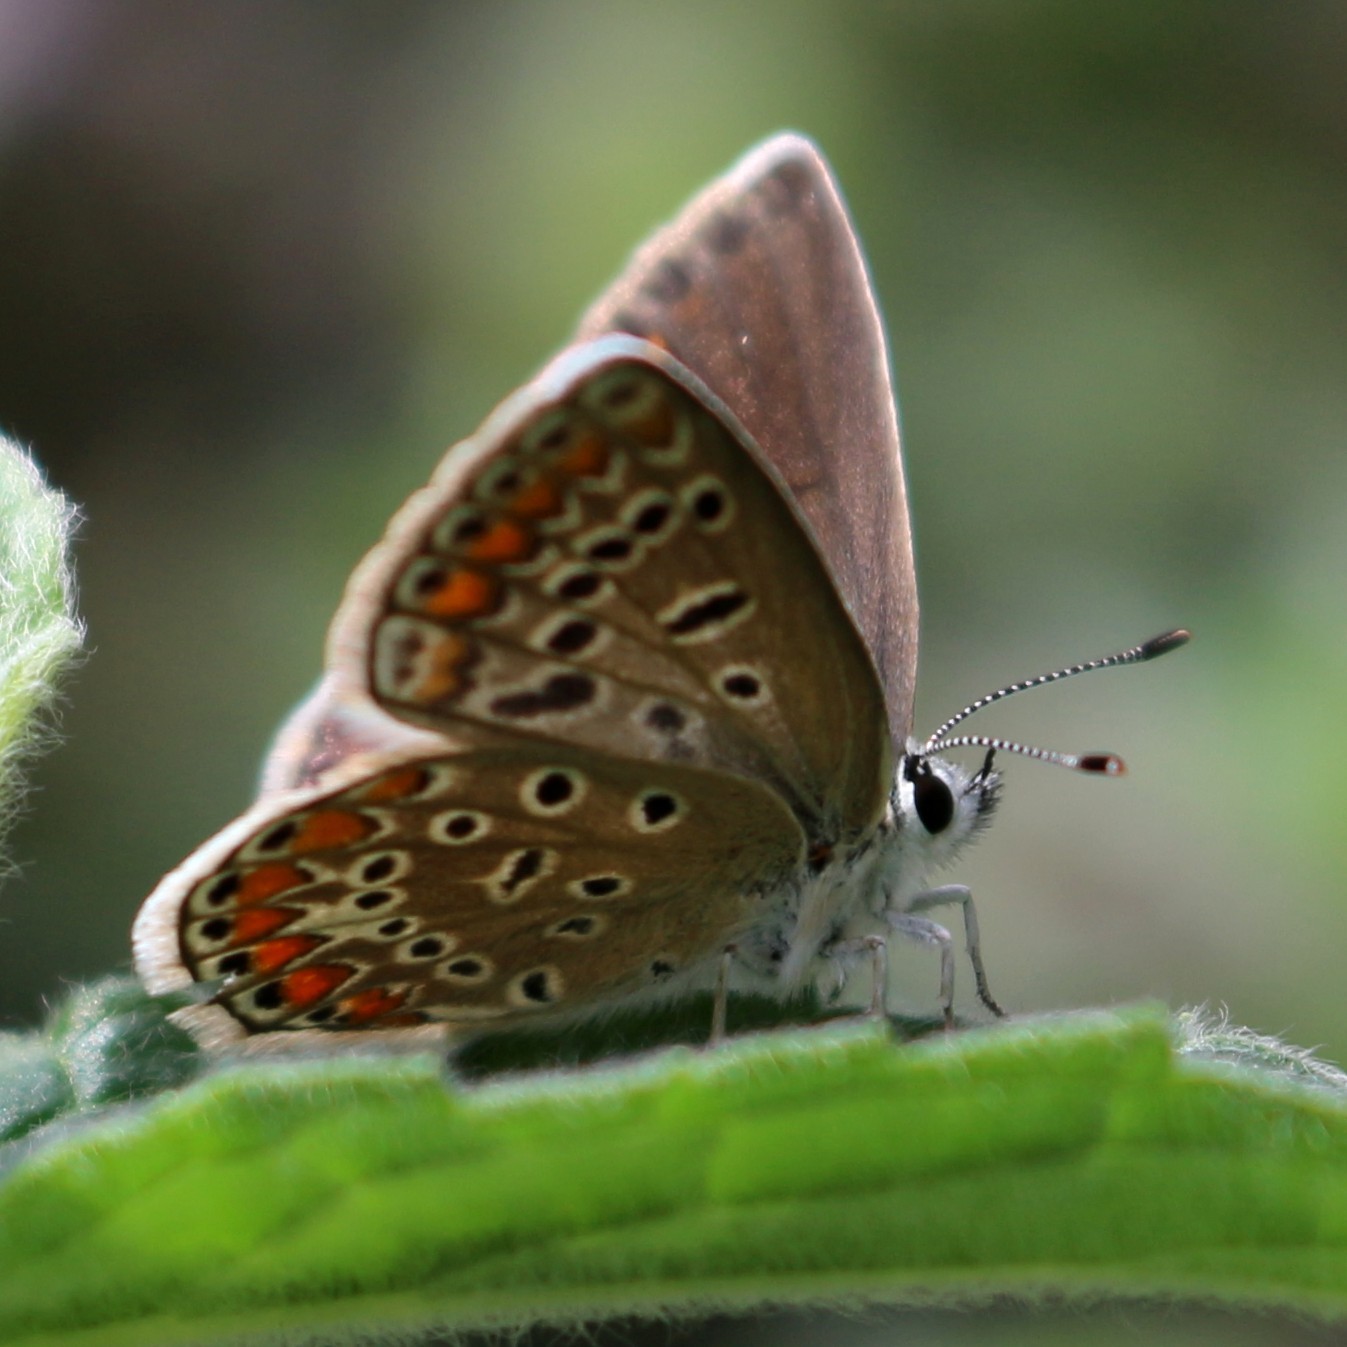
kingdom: Animalia
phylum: Arthropoda
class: Insecta
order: Lepidoptera
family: Lycaenidae
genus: Polyommatus
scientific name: Polyommatus icarus
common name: Common blue
